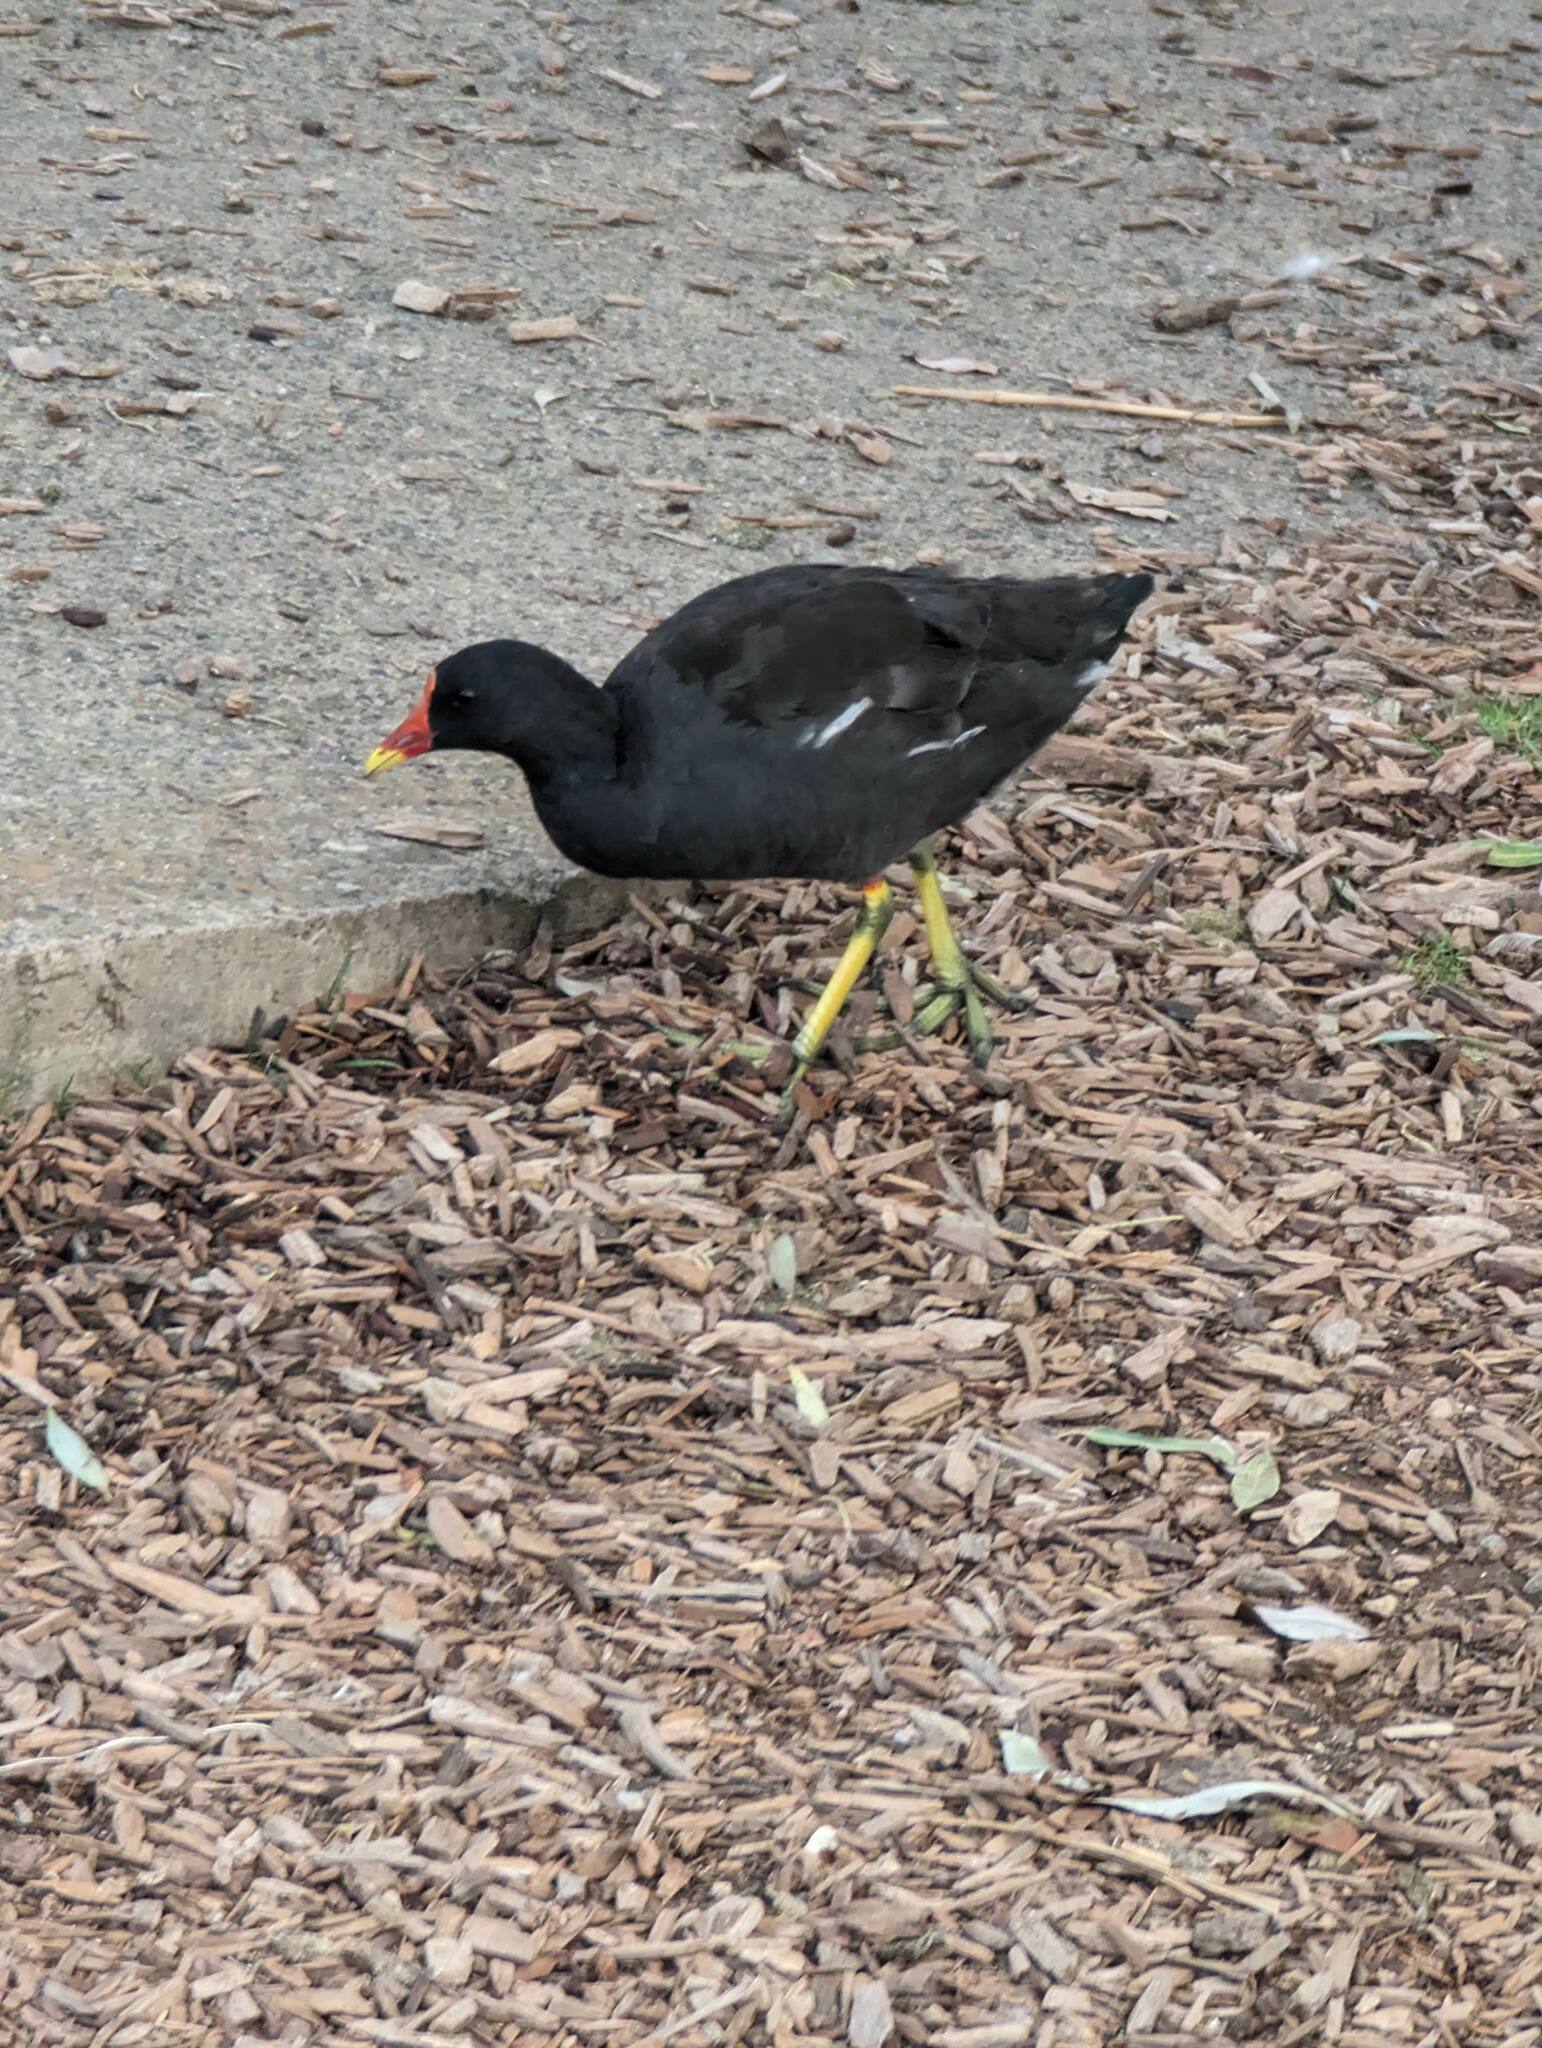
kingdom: Animalia
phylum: Chordata
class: Aves
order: Gruiformes
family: Rallidae
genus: Gallinula
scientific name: Gallinula chloropus
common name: Common moorhen
